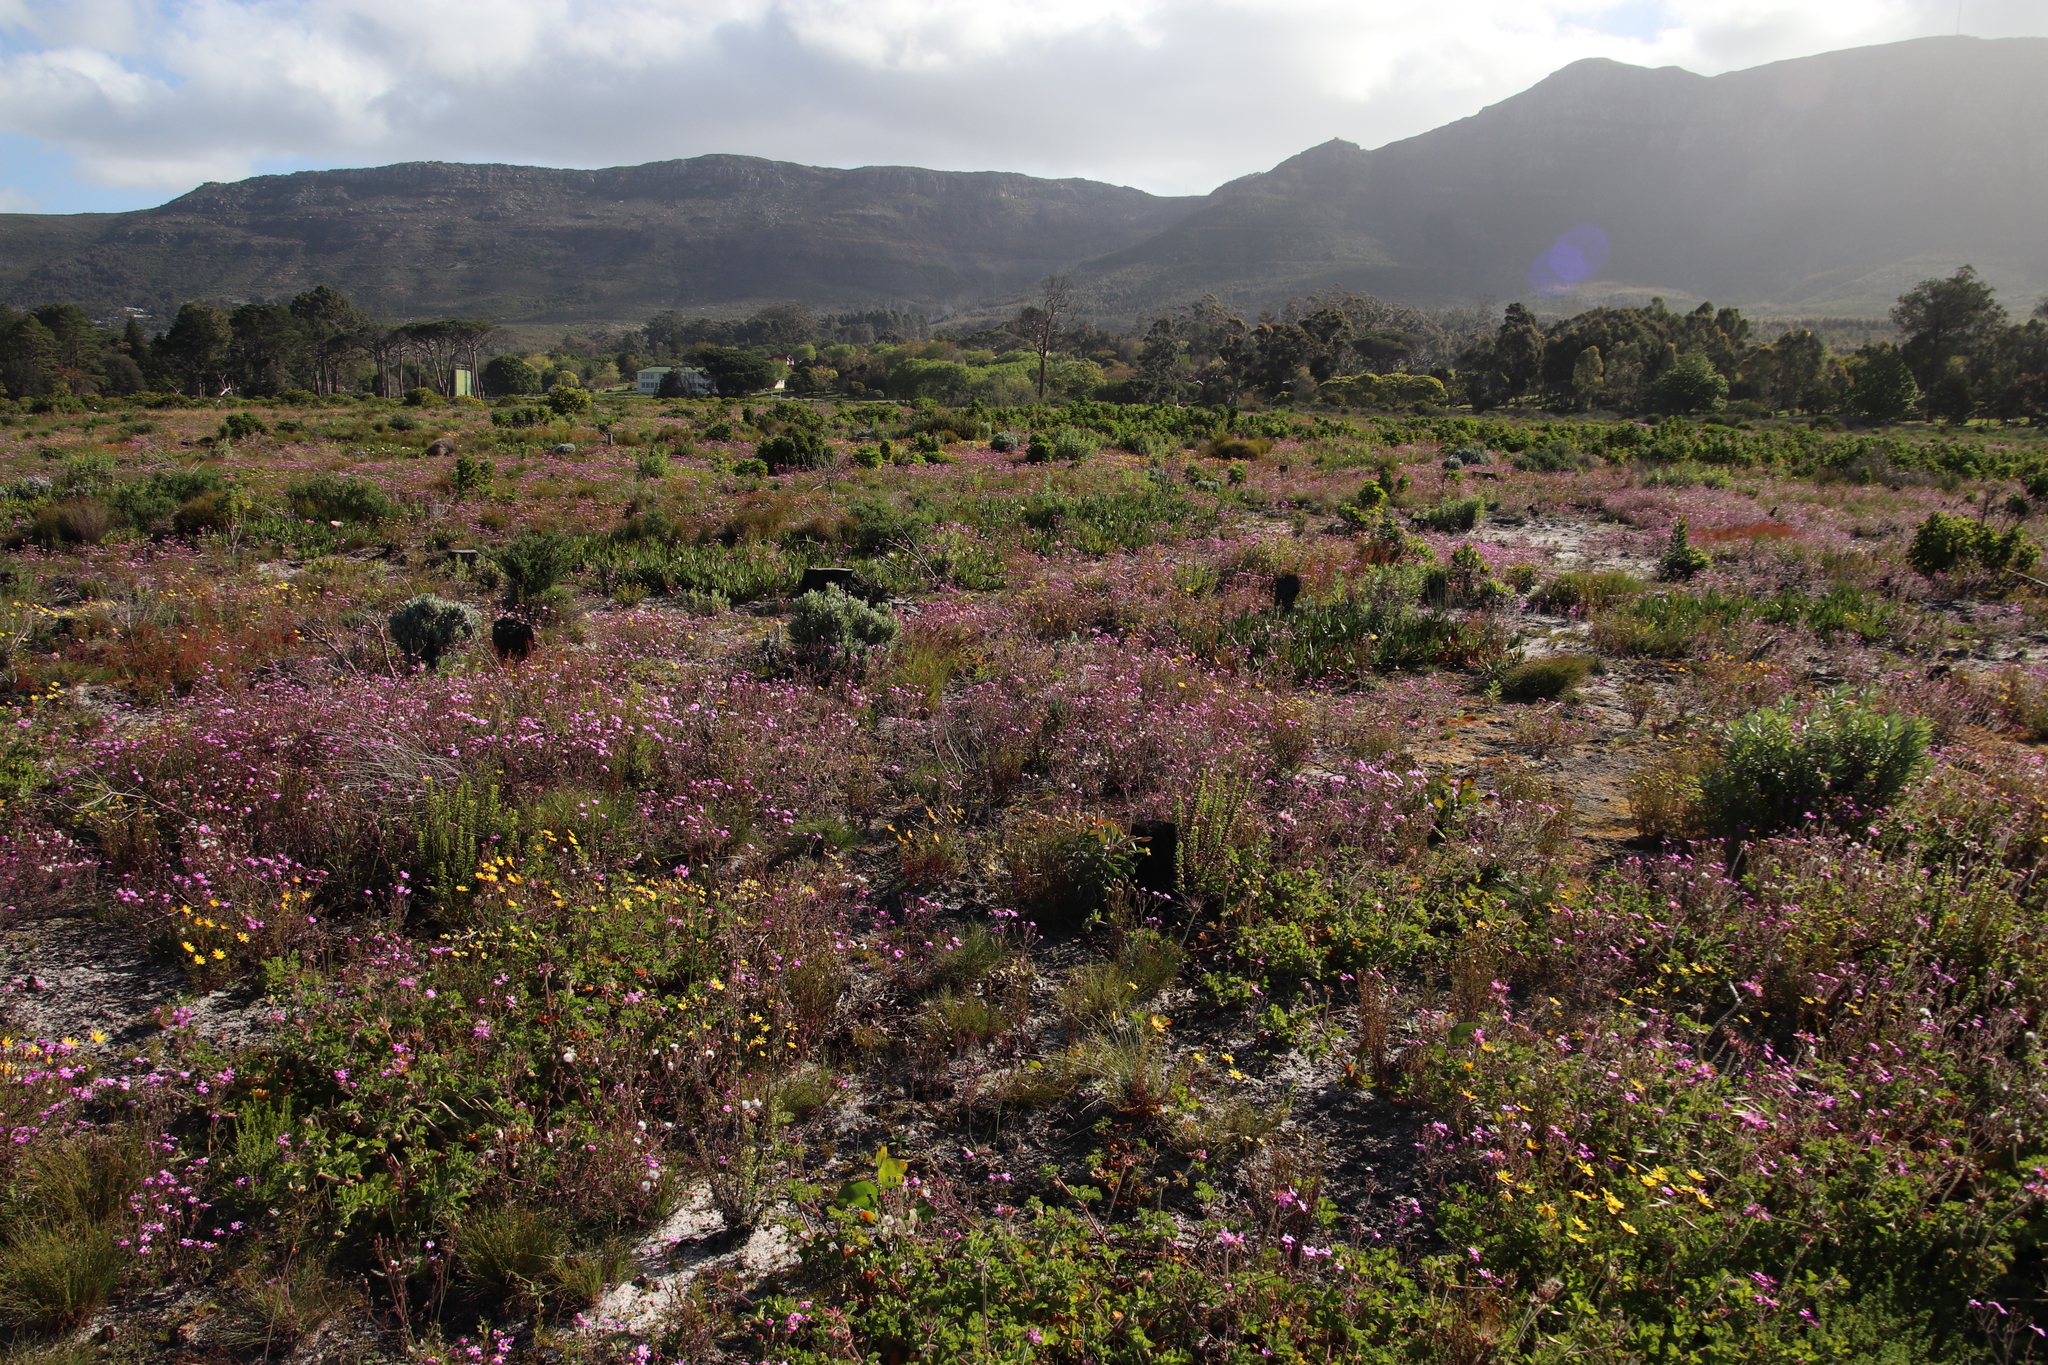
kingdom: Plantae
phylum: Tracheophyta
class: Magnoliopsida
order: Asterales
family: Asteraceae
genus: Senecio
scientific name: Senecio arenarius
